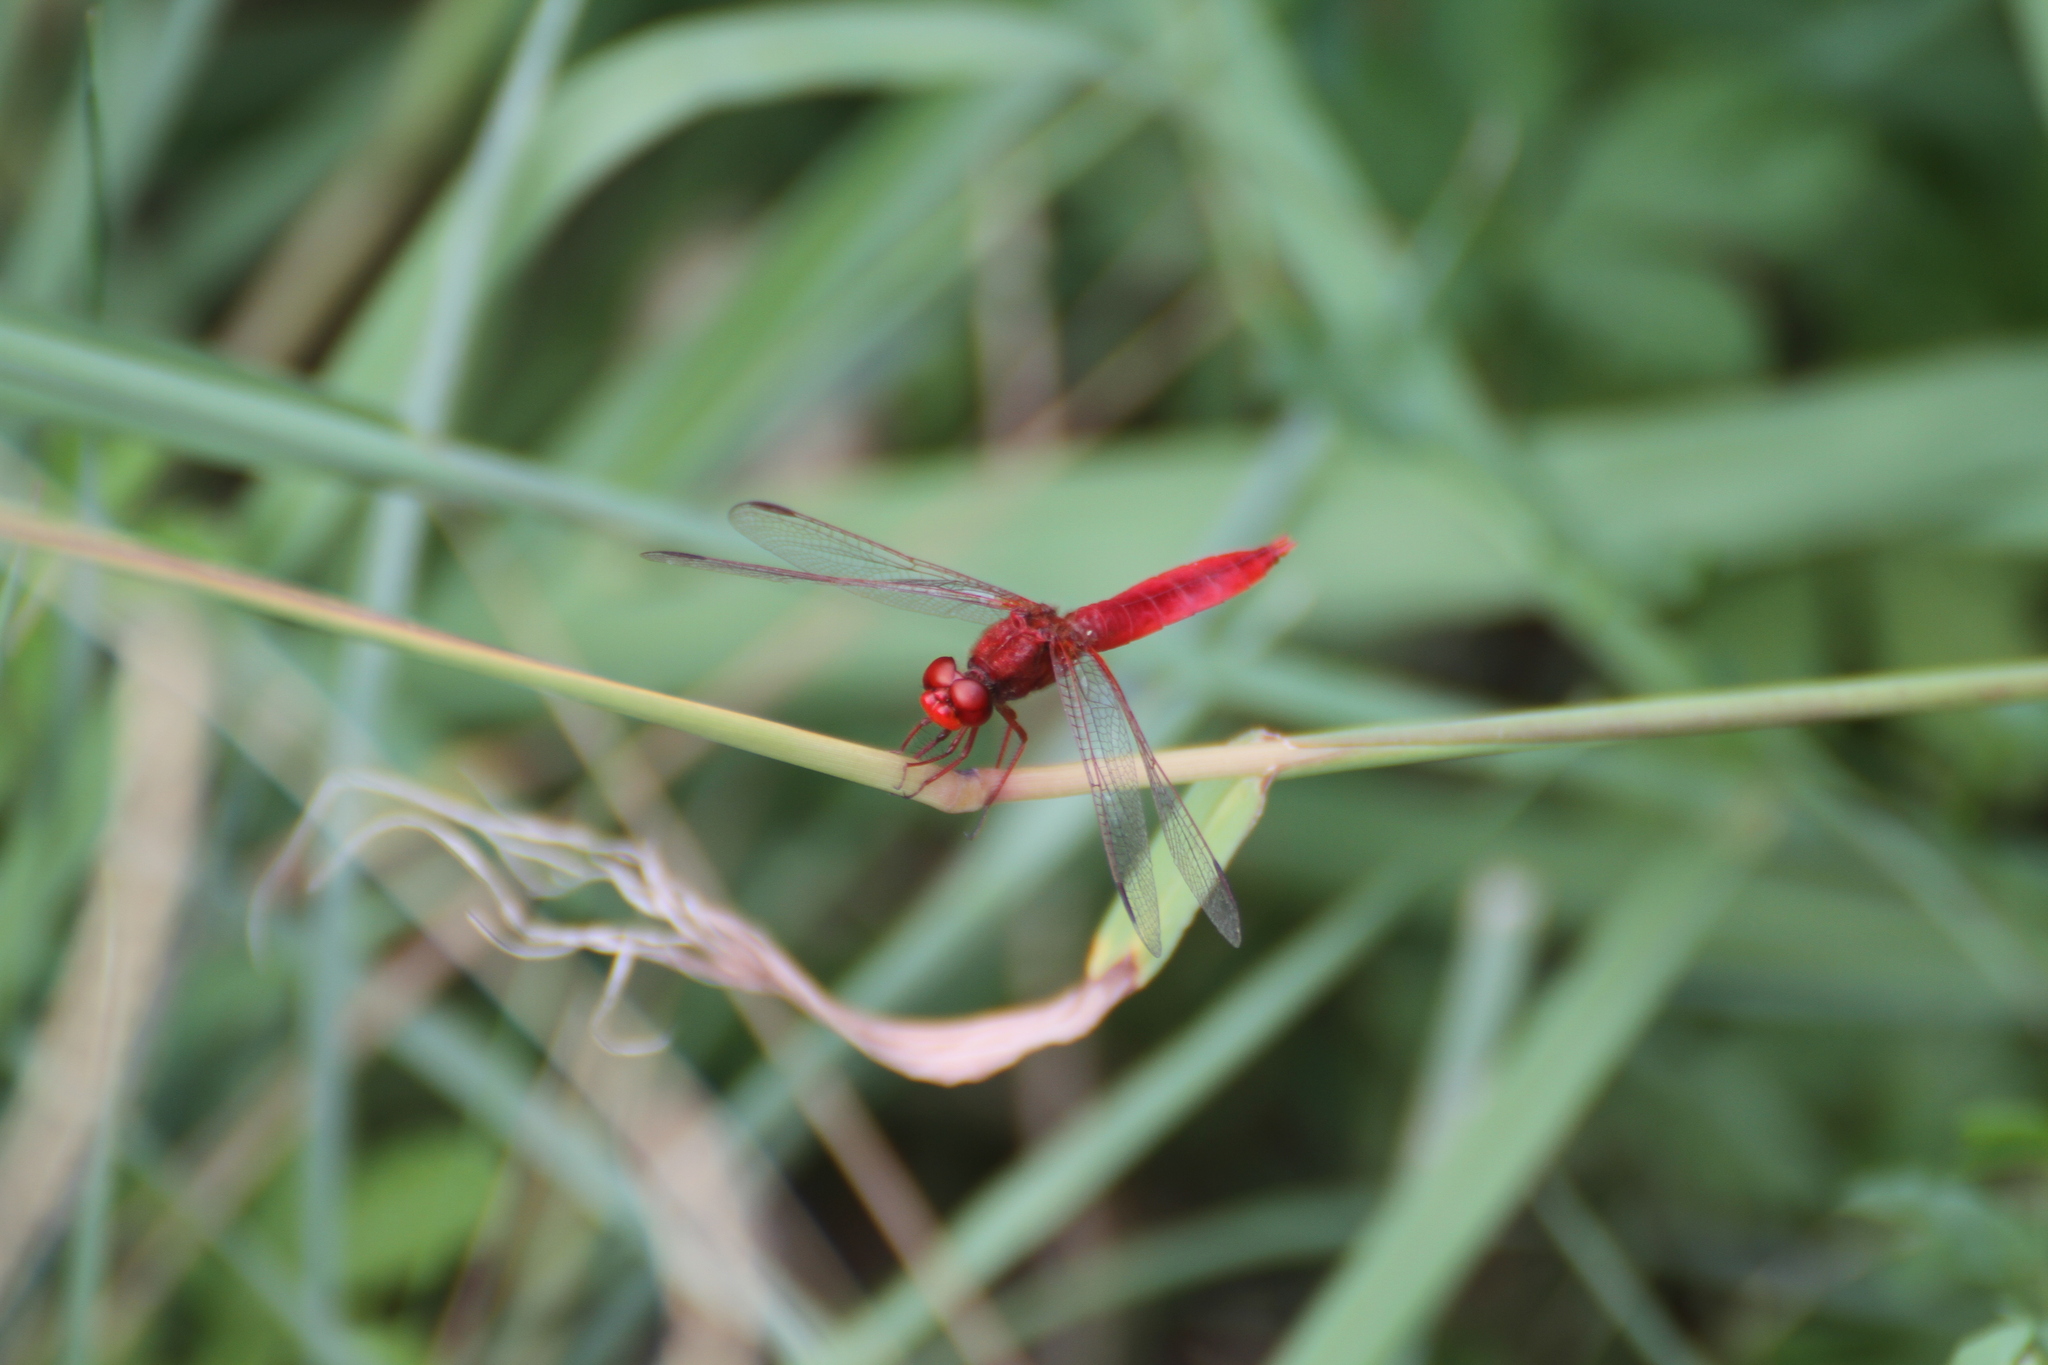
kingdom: Animalia
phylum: Arthropoda
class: Insecta
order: Odonata
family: Libellulidae
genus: Crocothemis
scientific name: Crocothemis erythraea
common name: Scarlet dragonfly
